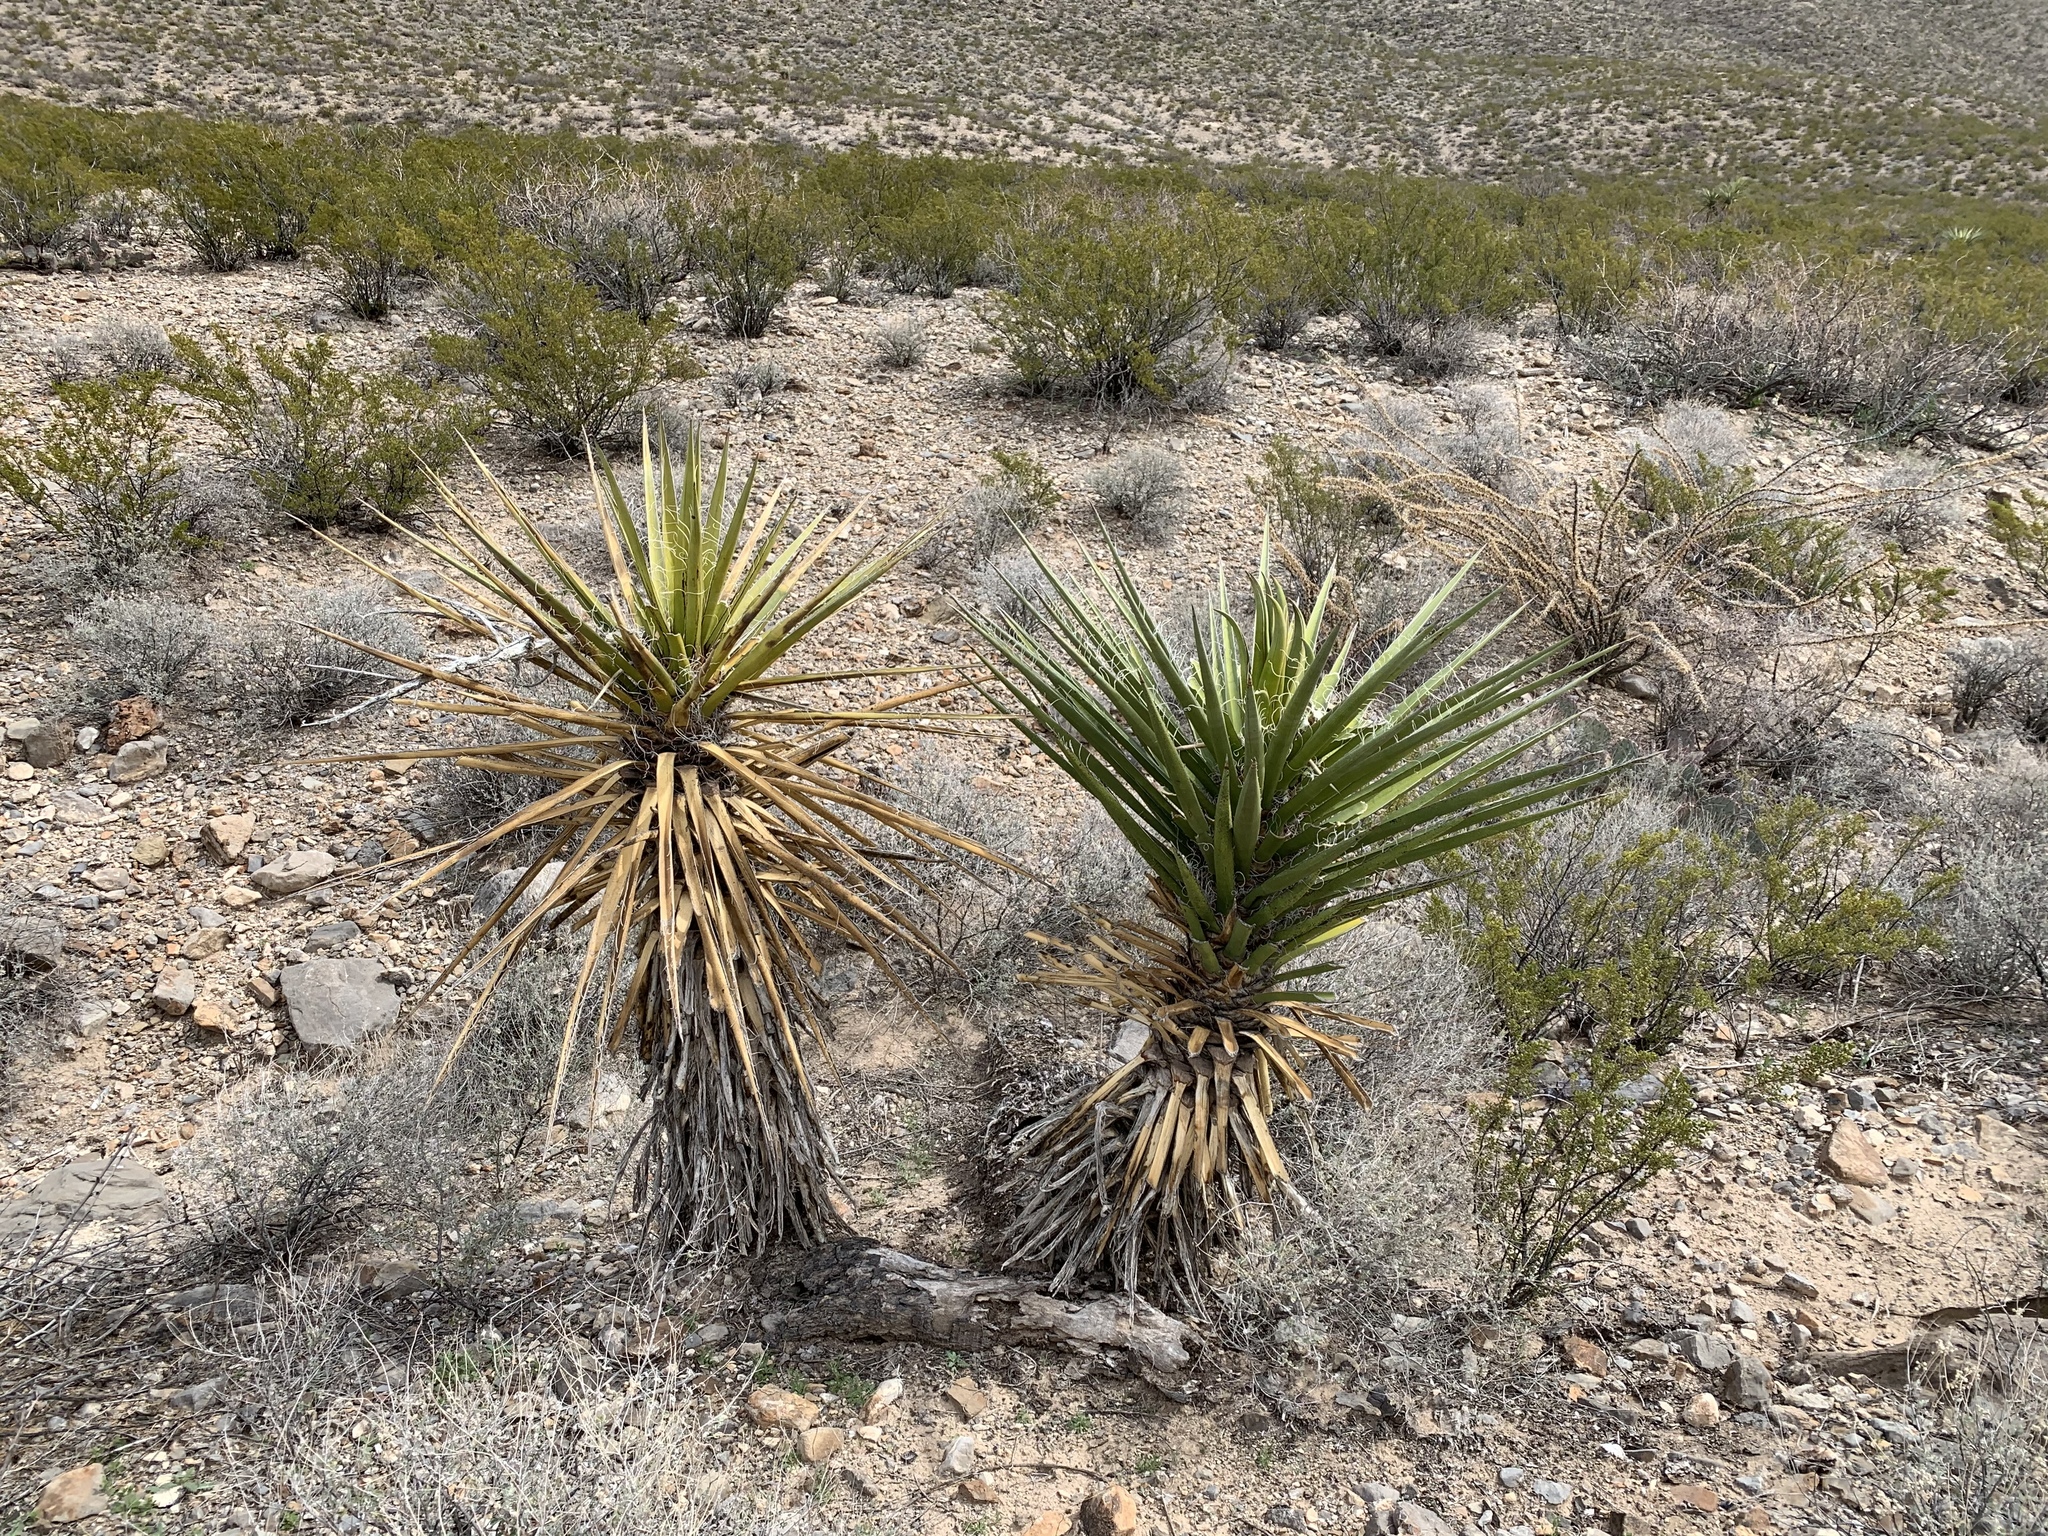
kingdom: Plantae
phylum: Tracheophyta
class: Liliopsida
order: Asparagales
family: Asparagaceae
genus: Yucca
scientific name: Yucca treculiana
